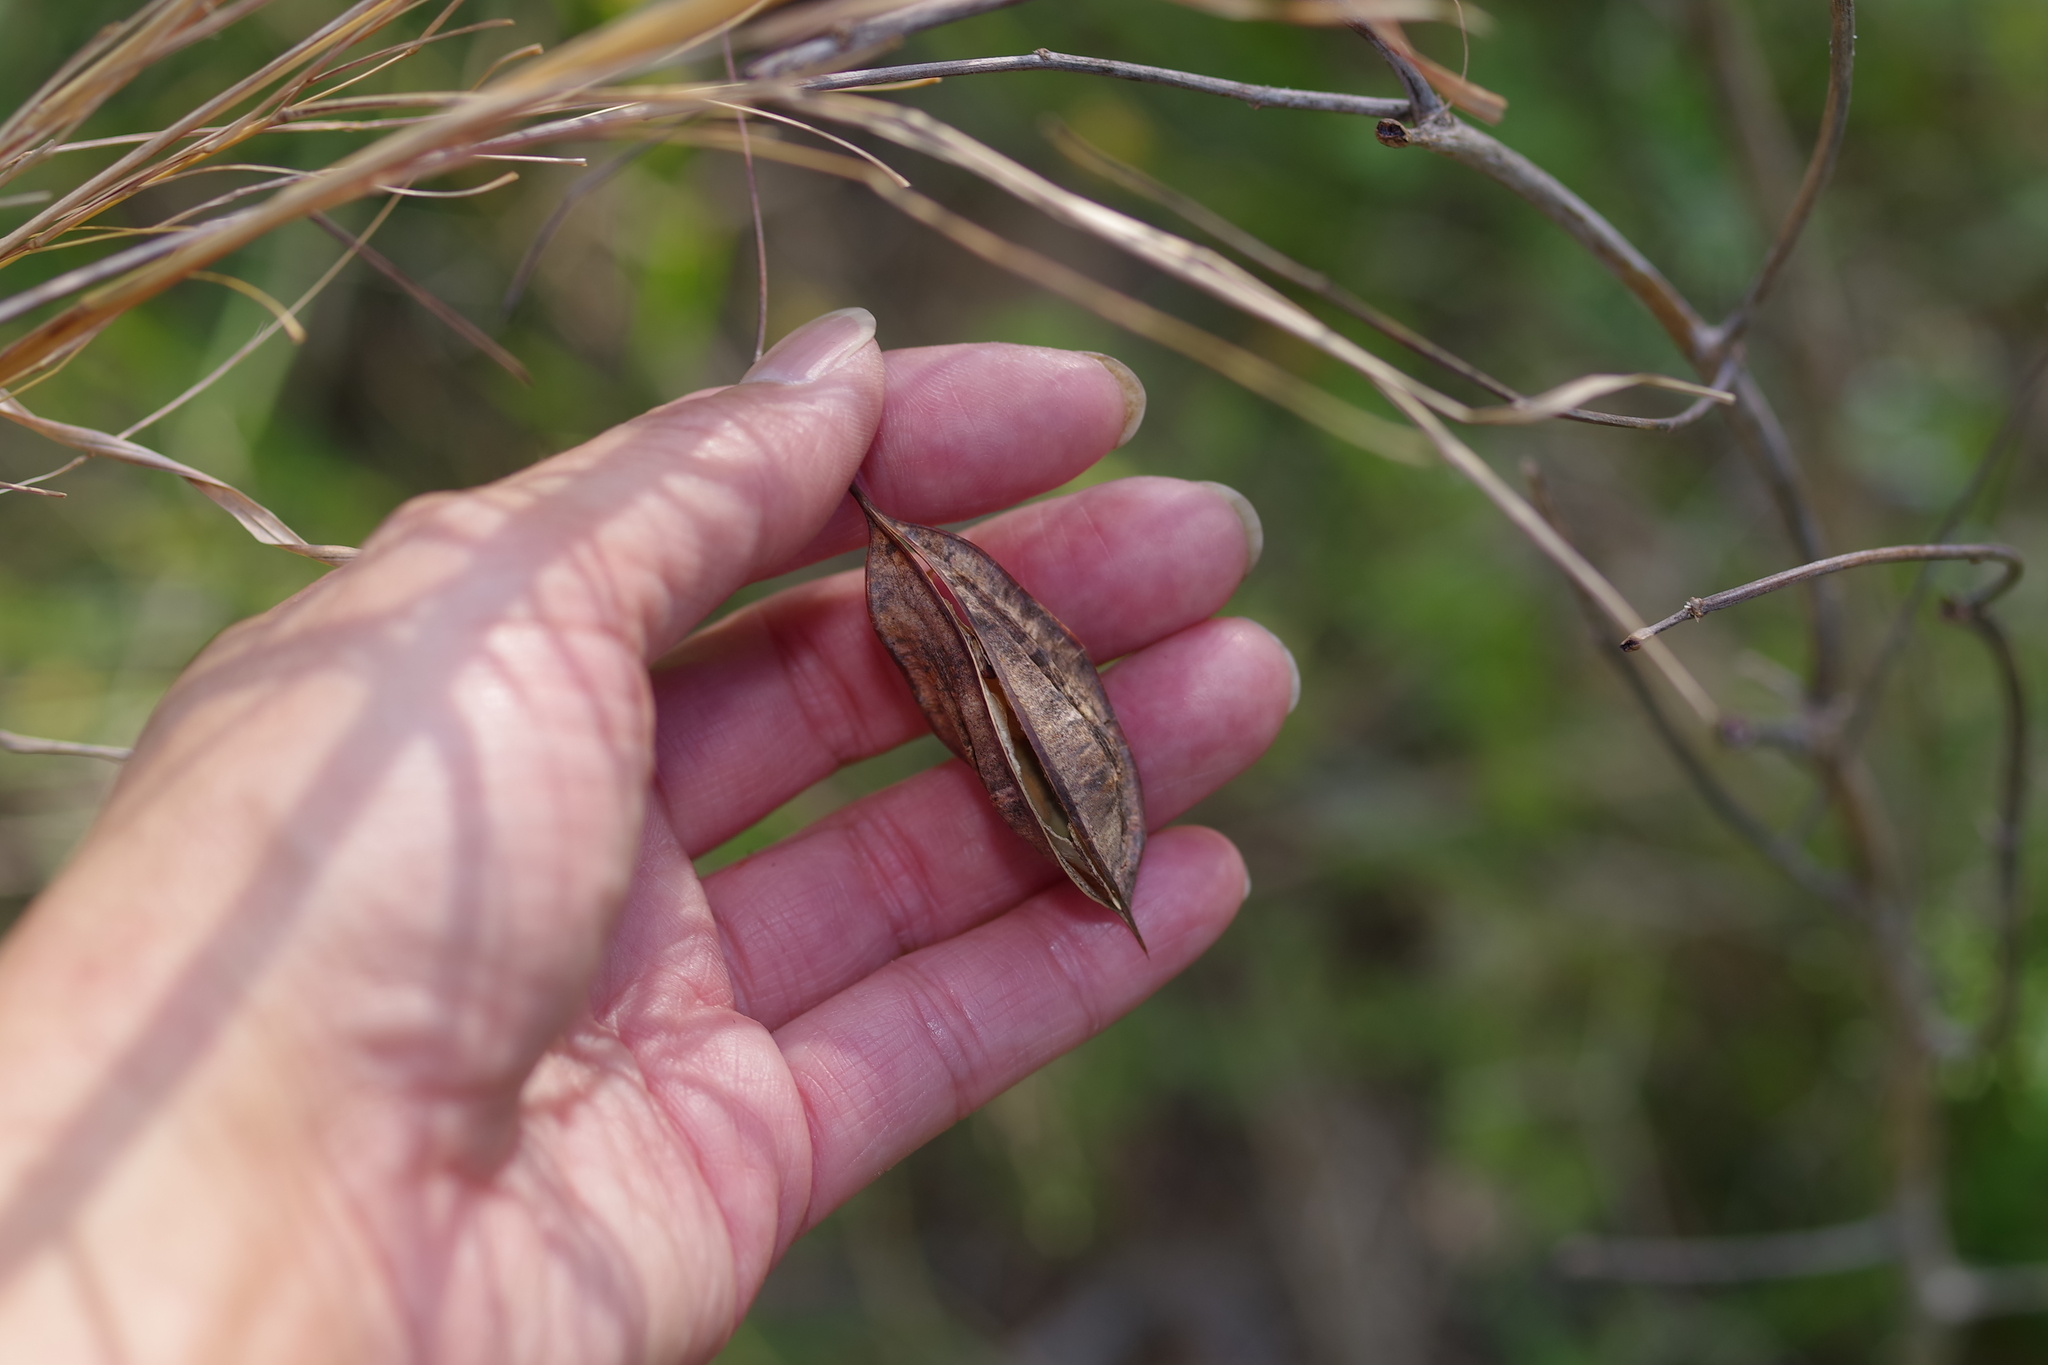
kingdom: Plantae
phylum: Tracheophyta
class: Magnoliopsida
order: Fabales
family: Fabaceae
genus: Sesbania
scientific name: Sesbania vesicaria
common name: Bagpod
